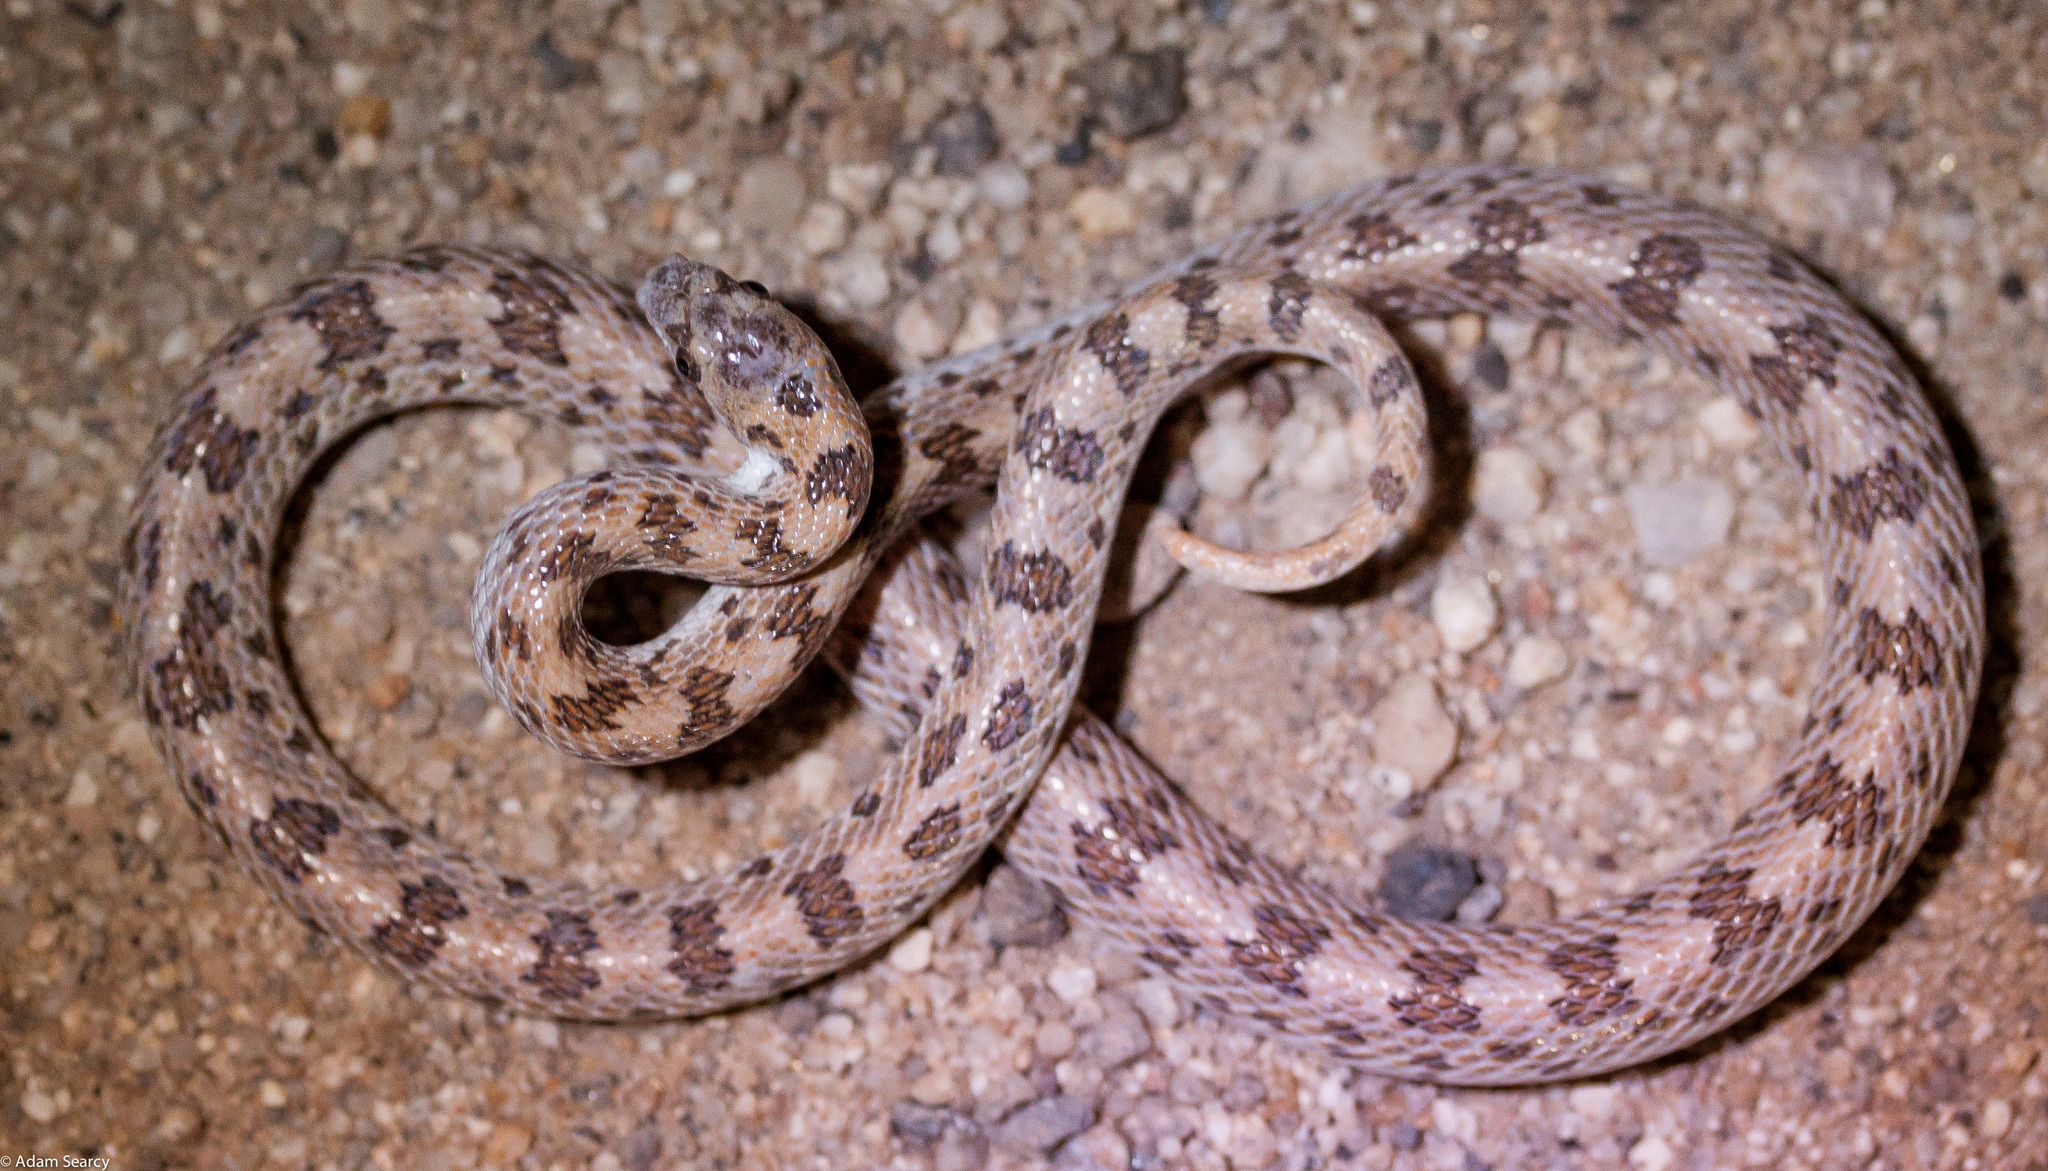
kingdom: Animalia
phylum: Chordata
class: Squamata
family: Colubridae
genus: Phyllorhynchus
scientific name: Phyllorhynchus decurtatus
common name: Spotted leafnose snake
